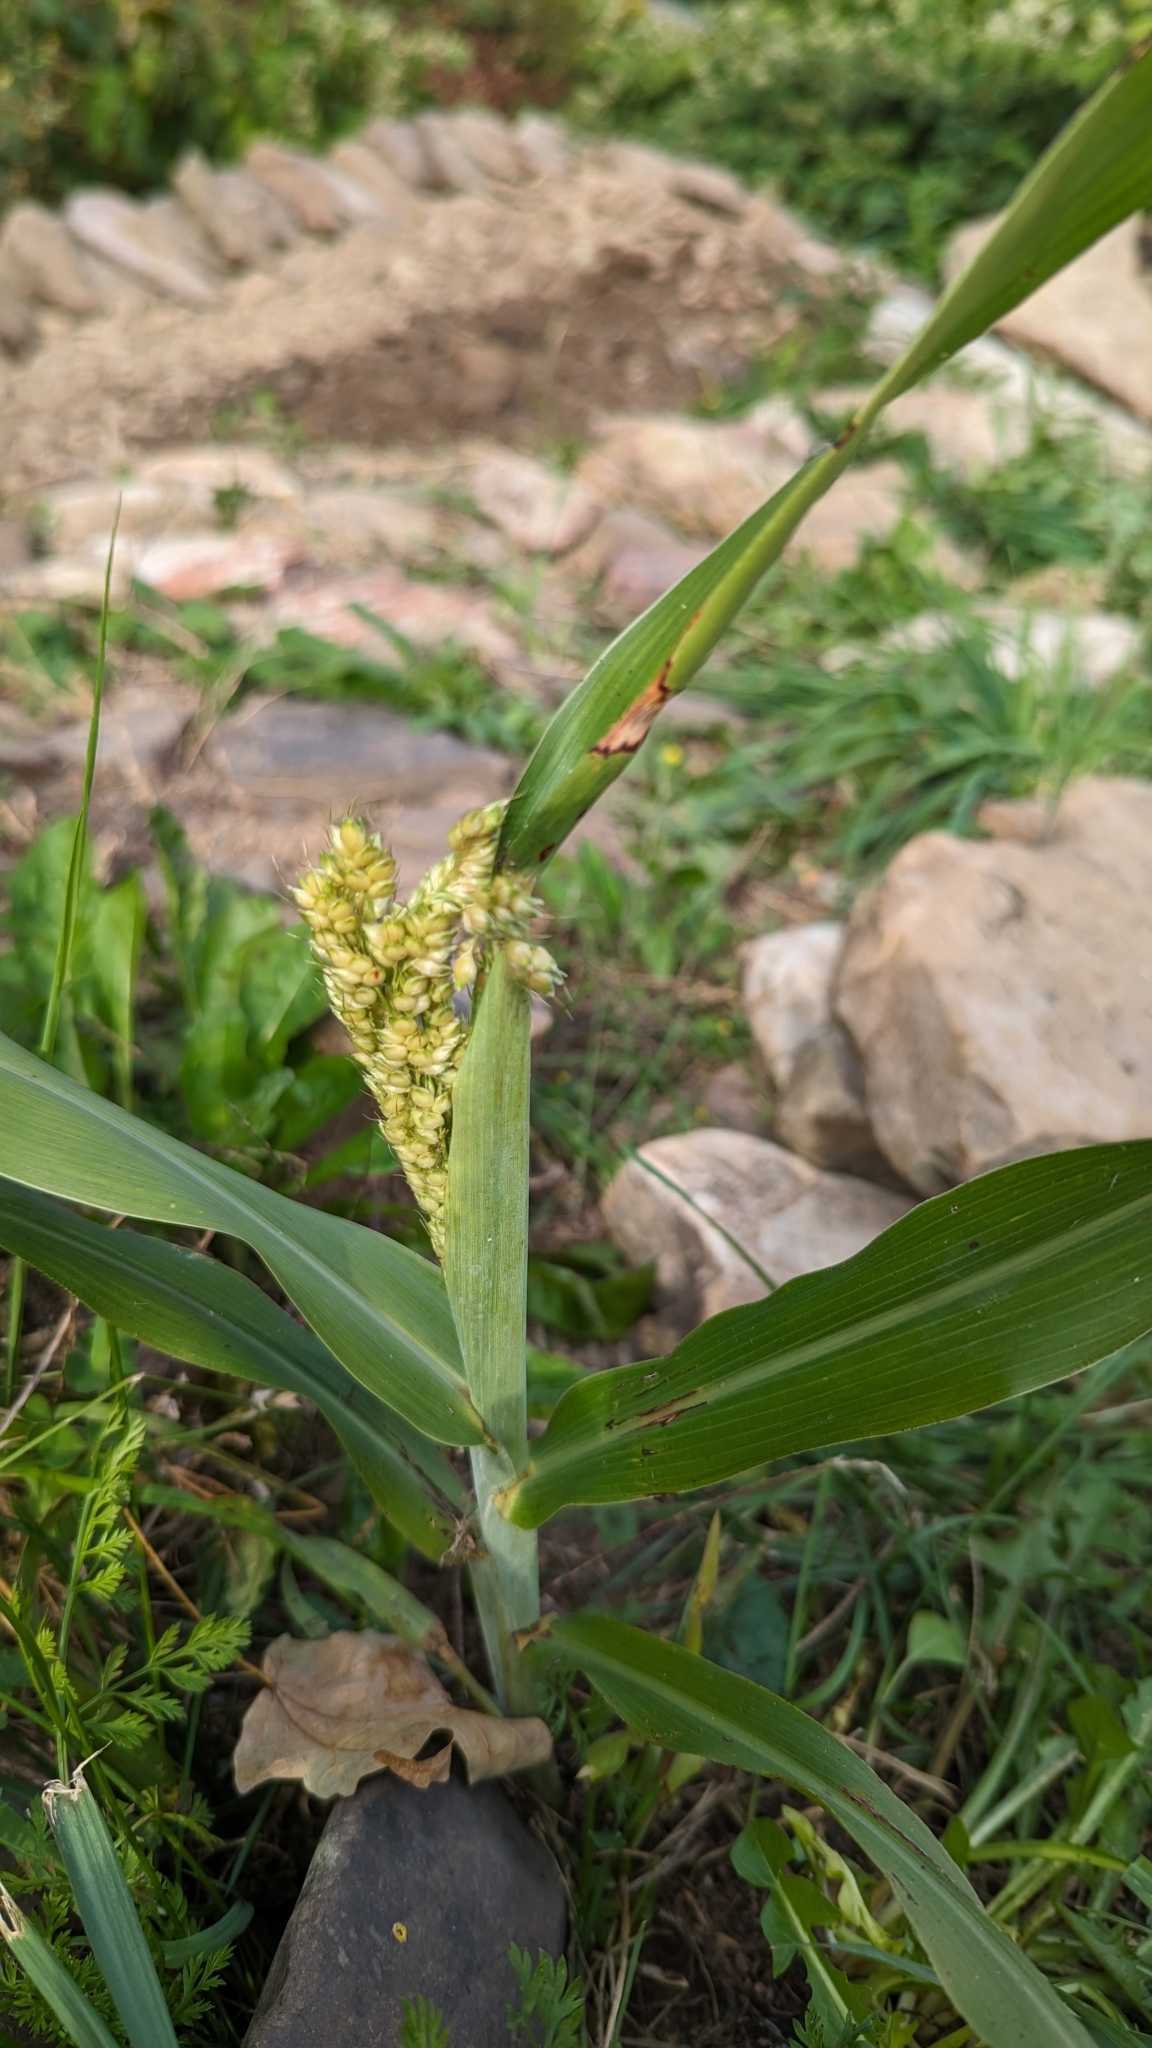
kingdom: Plantae
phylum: Tracheophyta
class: Liliopsida
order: Poales
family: Poaceae
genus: Sorghum
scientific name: Sorghum bicolor
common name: Sorghum
